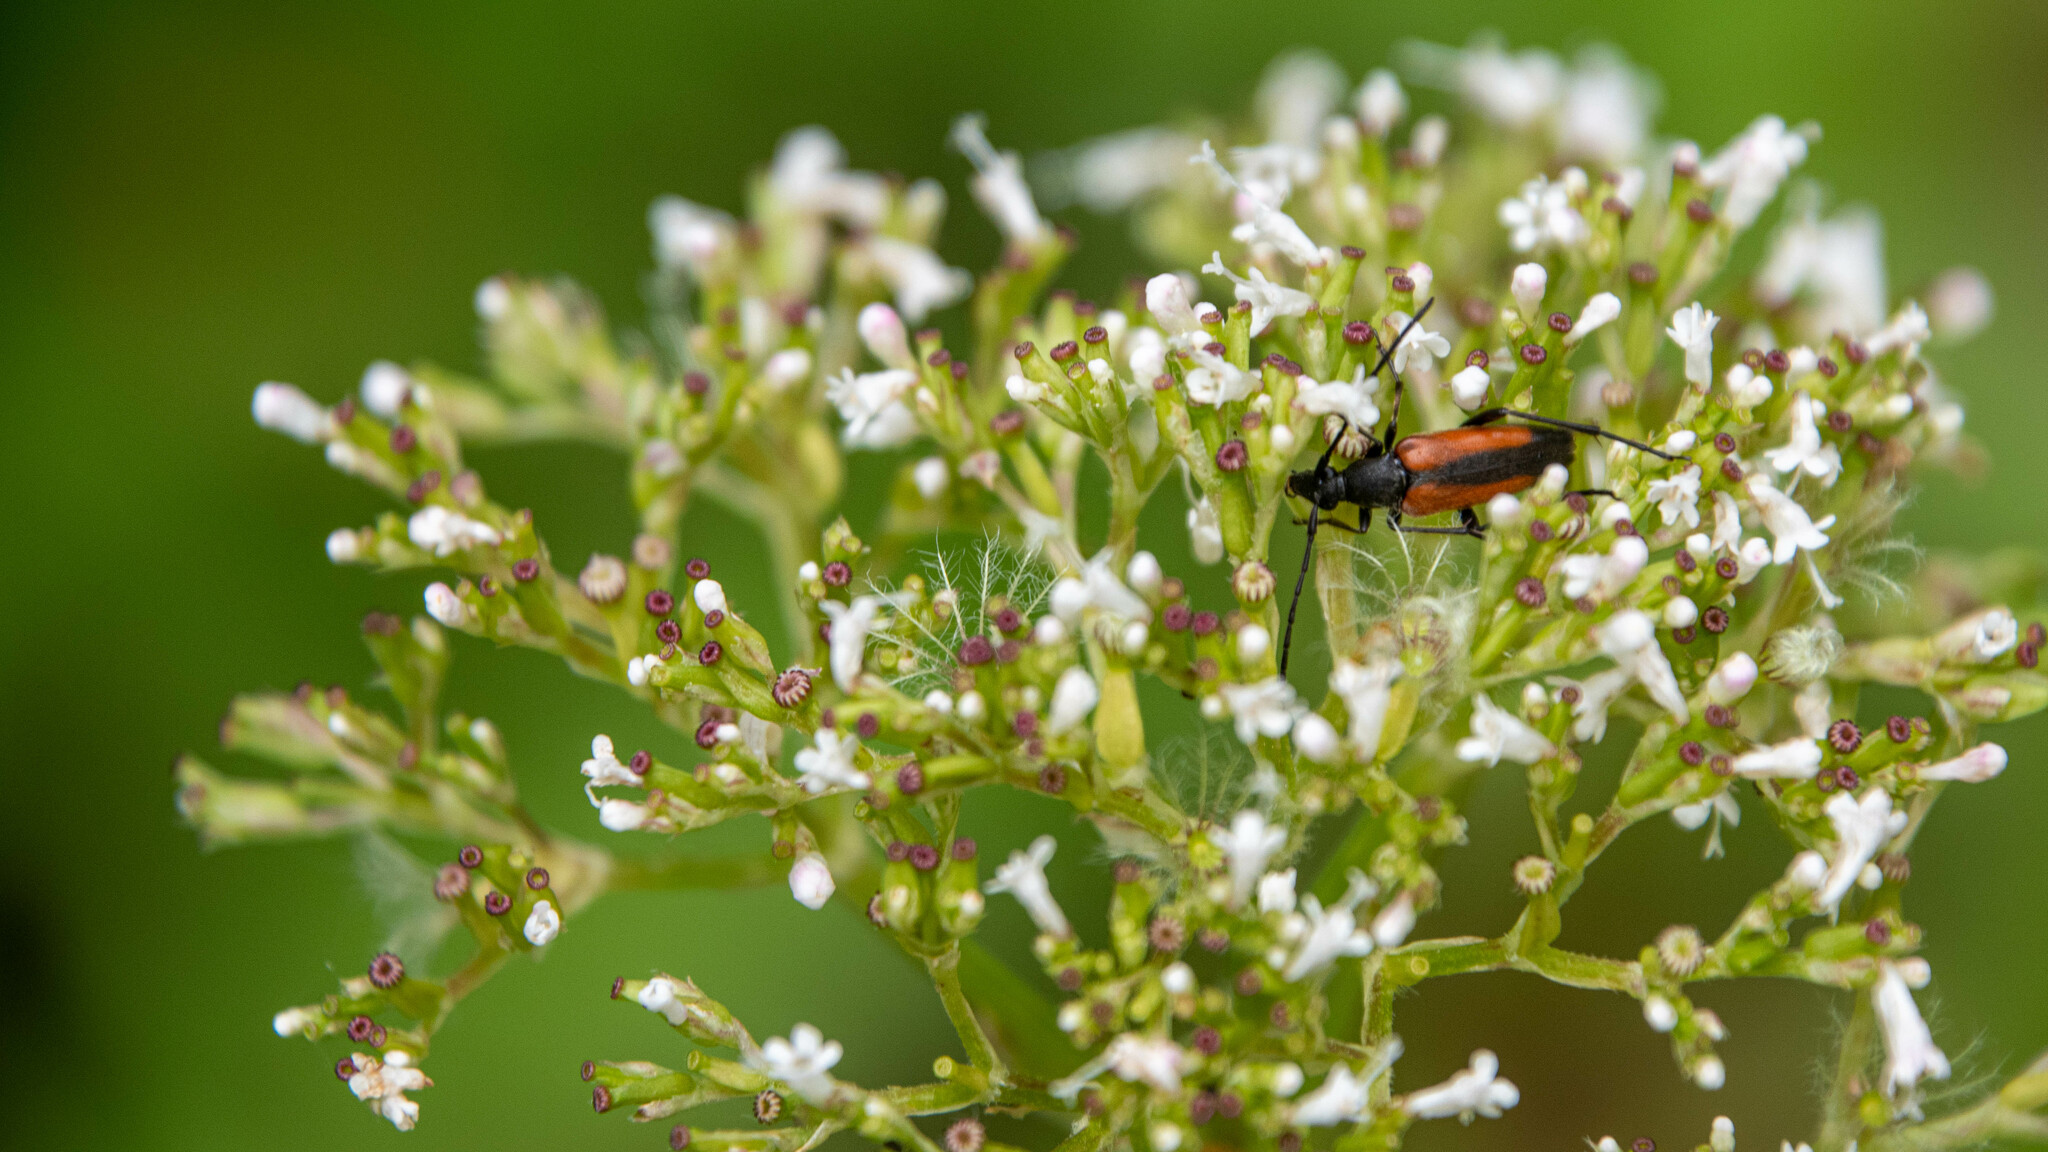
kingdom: Animalia
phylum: Arthropoda
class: Insecta
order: Coleoptera
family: Cerambycidae
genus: Stenurella
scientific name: Stenurella melanura
